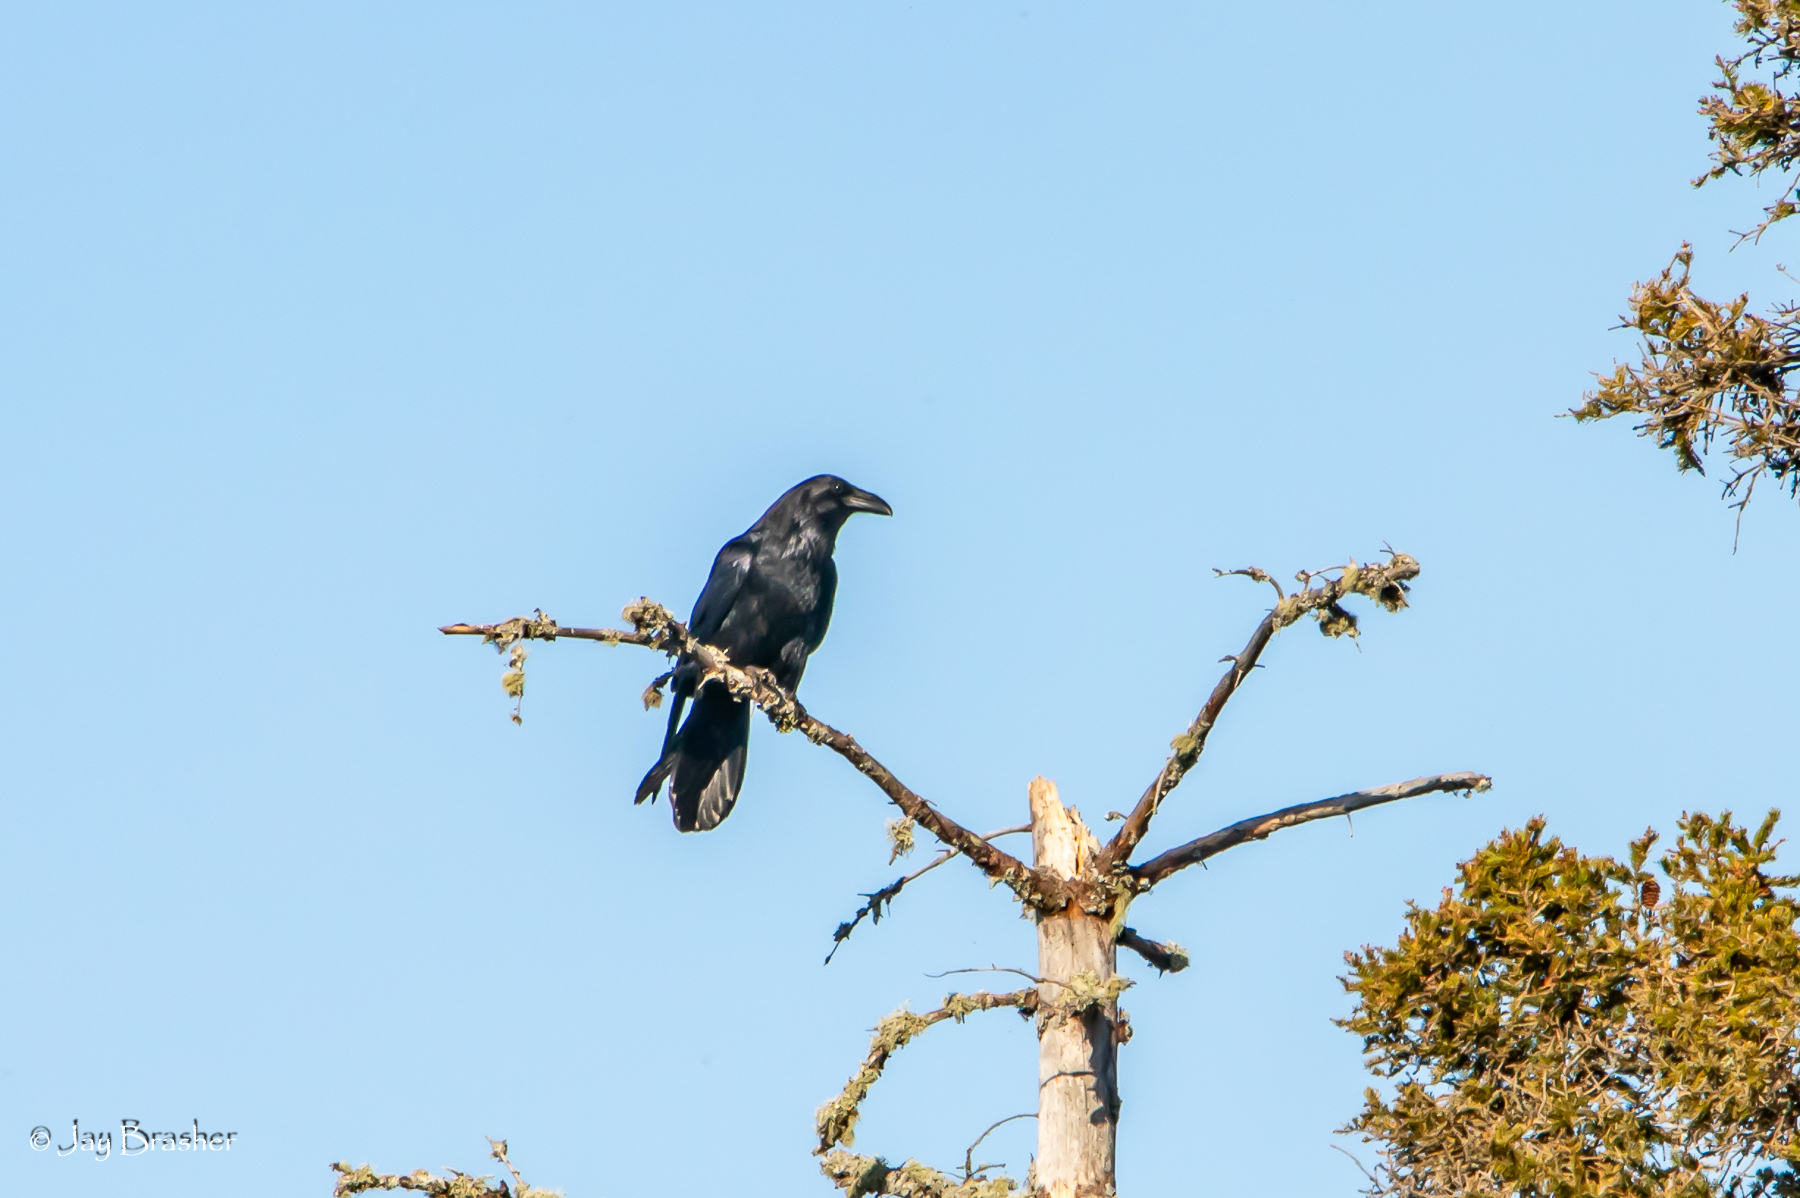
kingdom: Animalia
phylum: Chordata
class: Aves
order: Passeriformes
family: Corvidae
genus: Corvus
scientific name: Corvus corax
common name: Common raven
